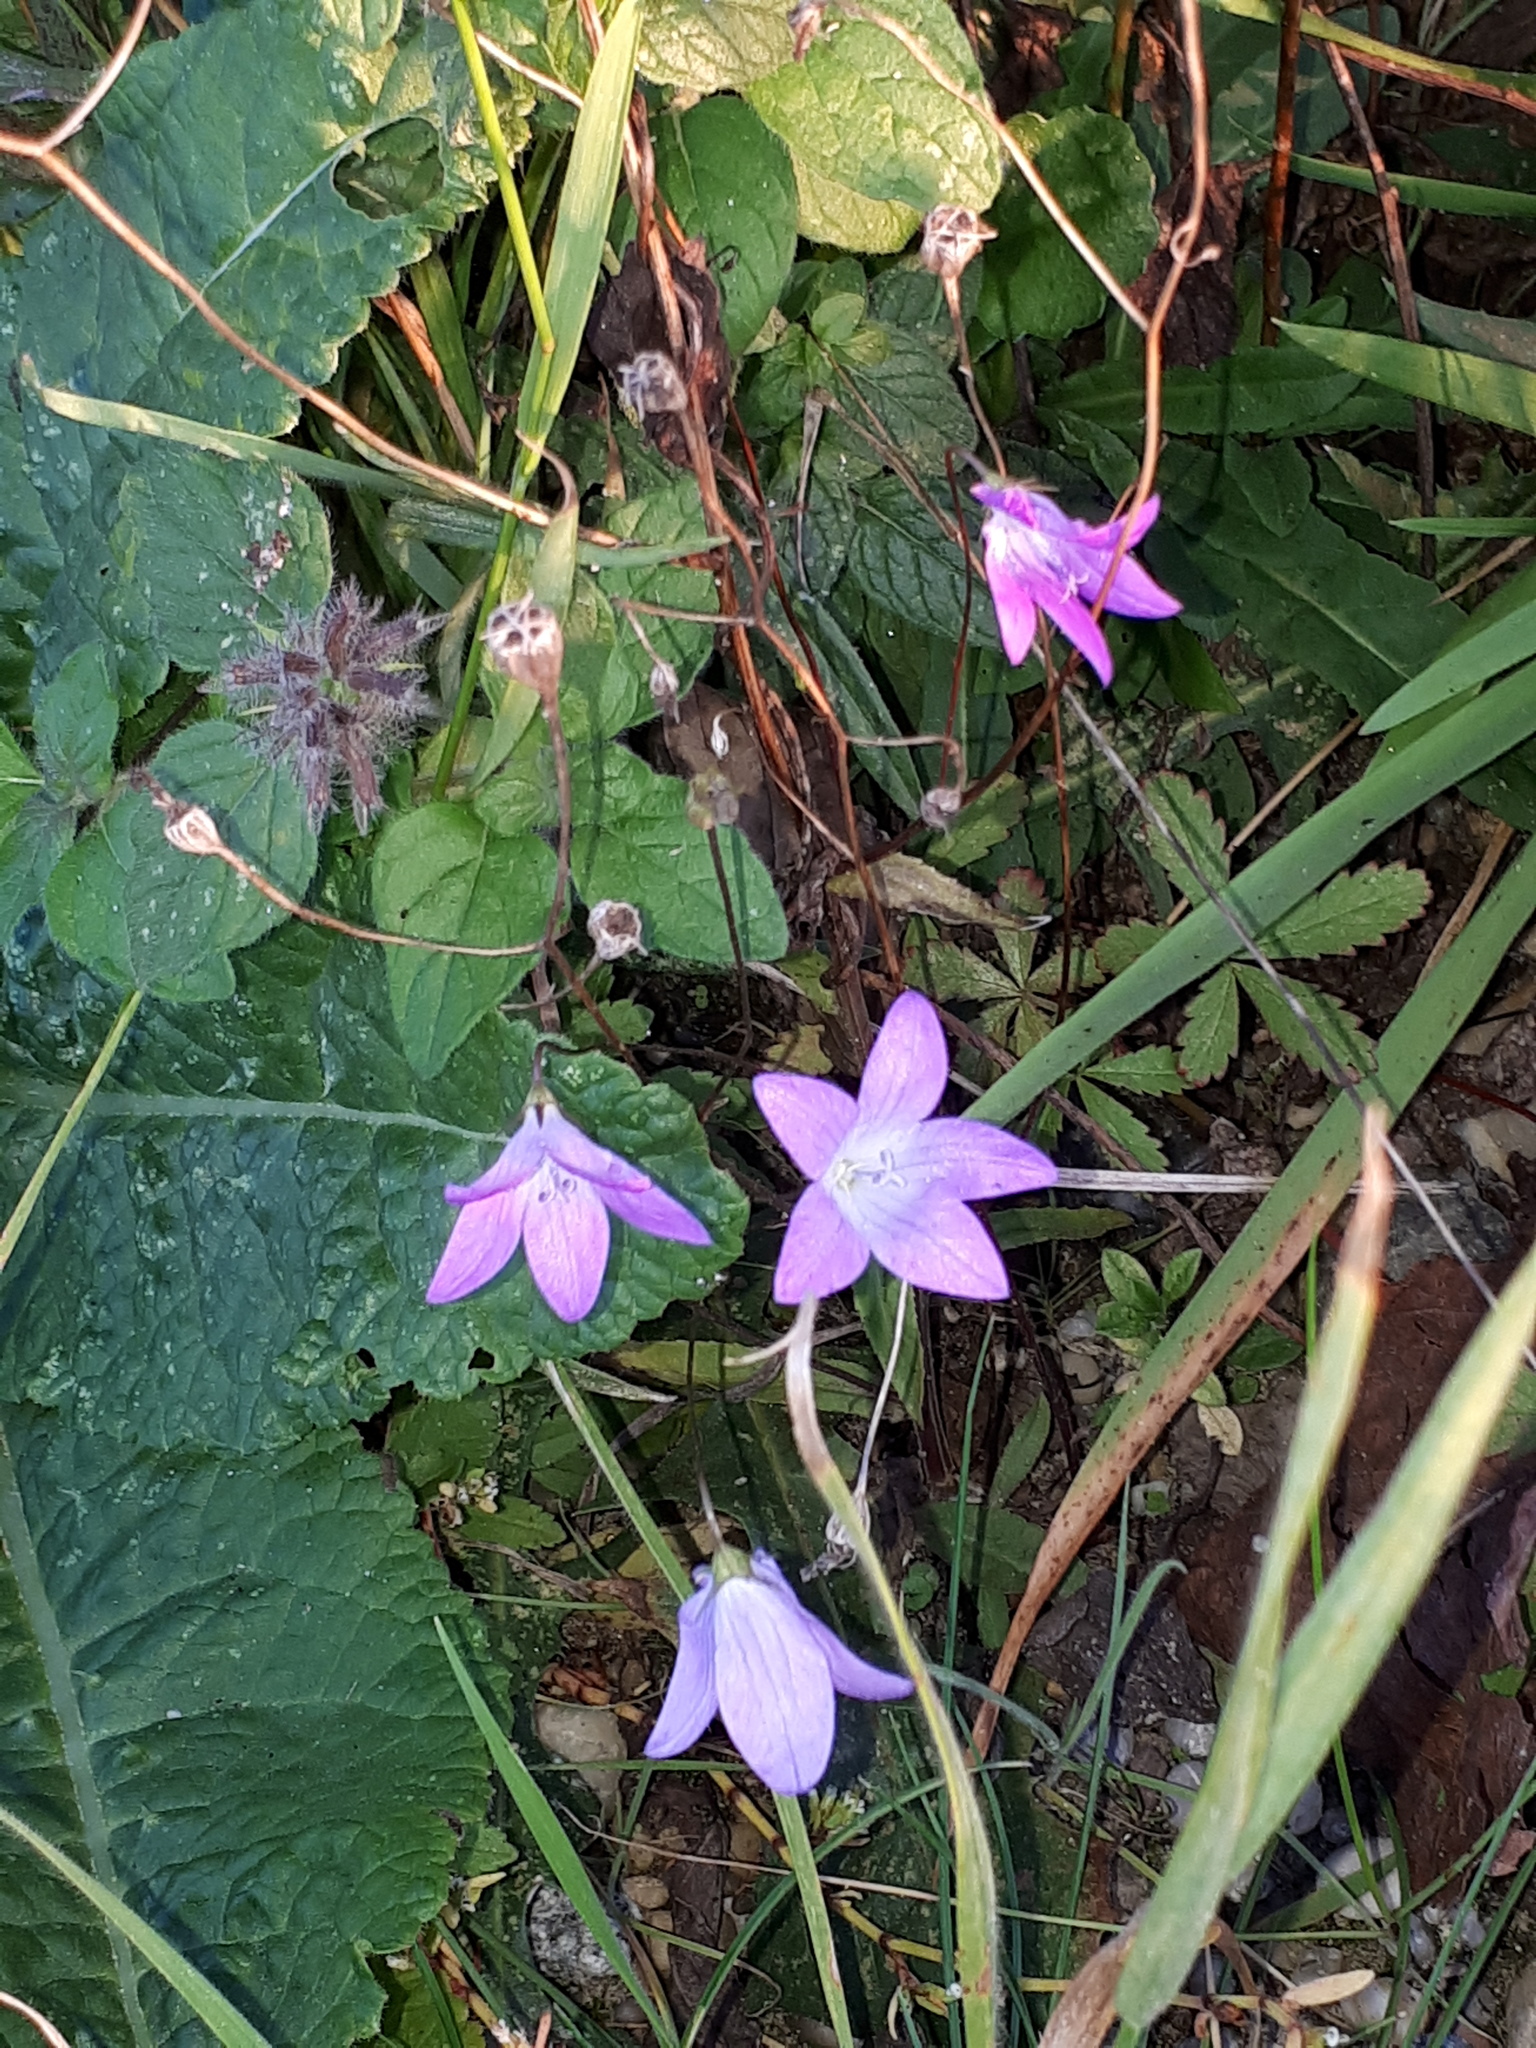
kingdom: Plantae
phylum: Tracheophyta
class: Magnoliopsida
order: Asterales
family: Campanulaceae
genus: Campanula
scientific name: Campanula patula
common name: Spreading bellflower
